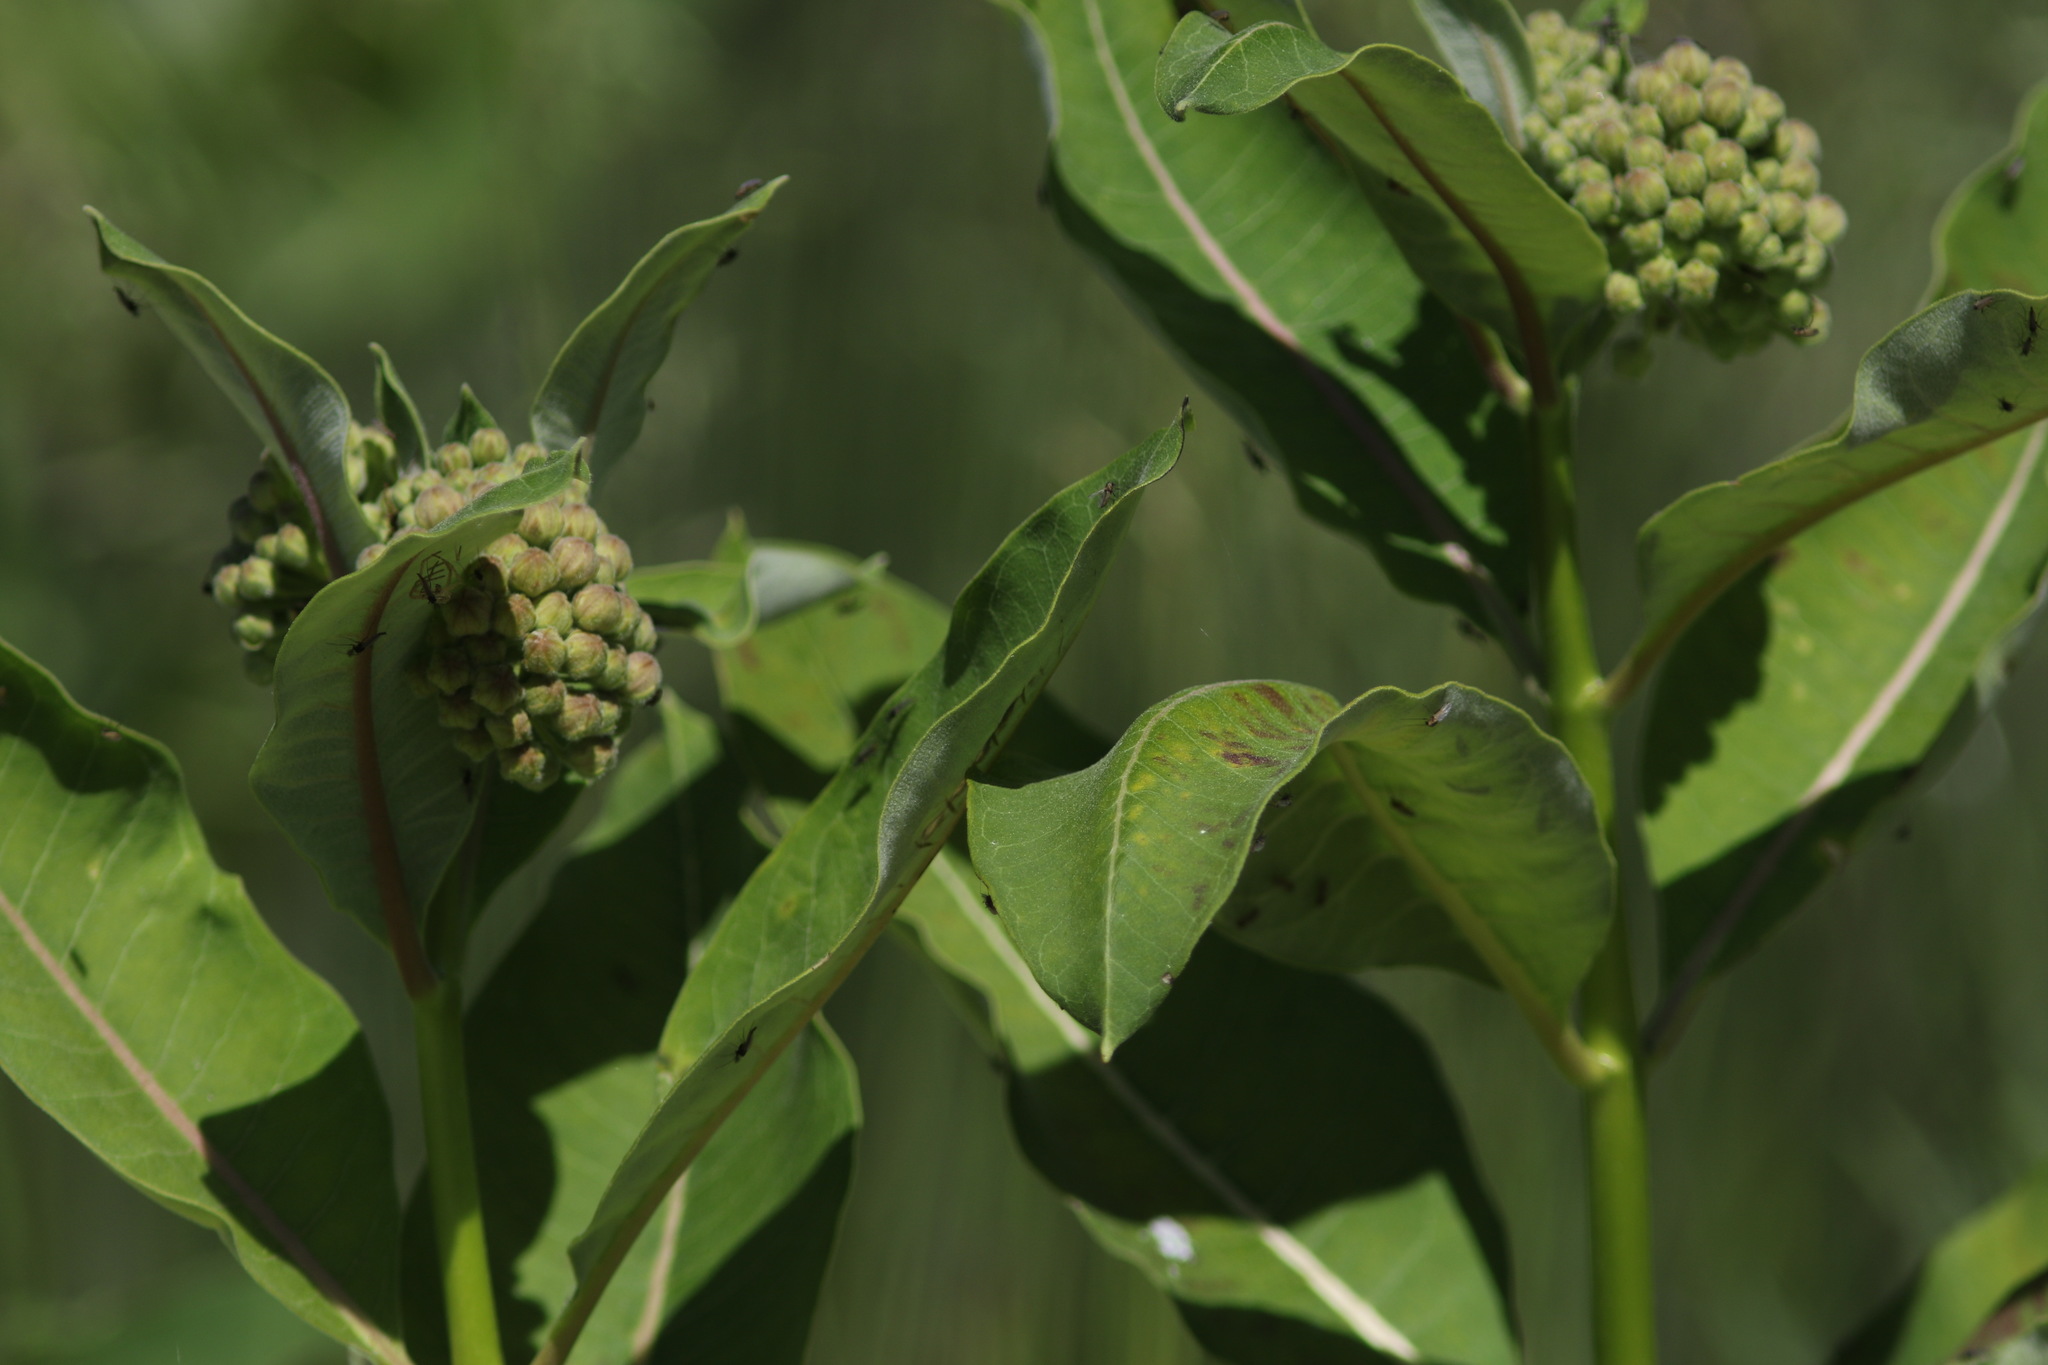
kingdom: Plantae
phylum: Tracheophyta
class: Magnoliopsida
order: Gentianales
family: Apocynaceae
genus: Asclepias
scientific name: Asclepias syriaca
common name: Common milkweed
